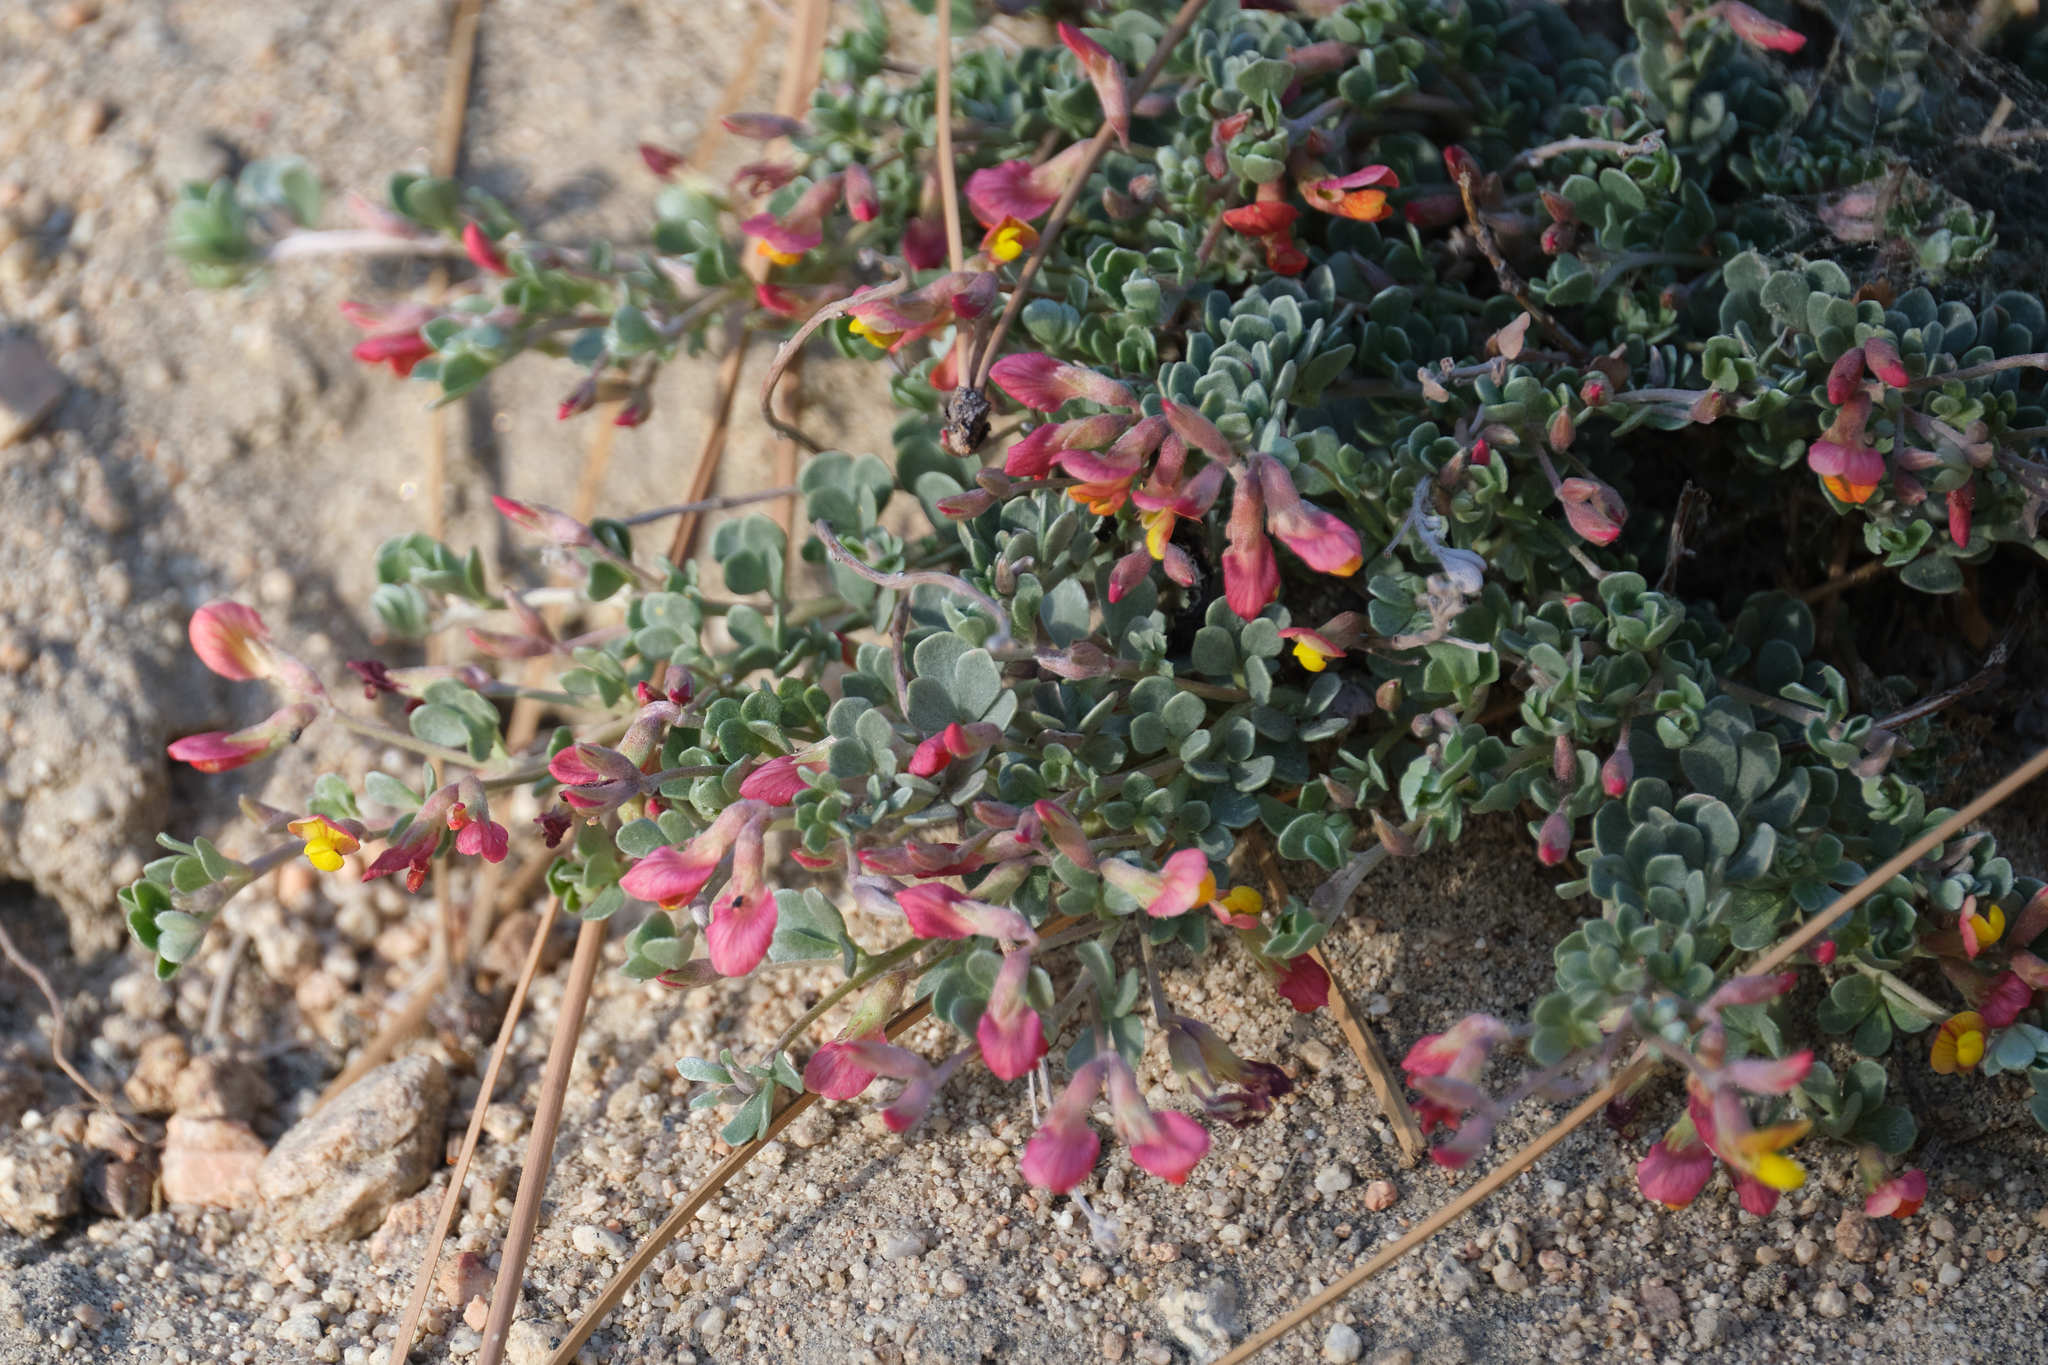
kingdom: Plantae
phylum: Tracheophyta
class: Magnoliopsida
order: Fabales
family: Fabaceae
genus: Acmispon
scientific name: Acmispon argyraeus
